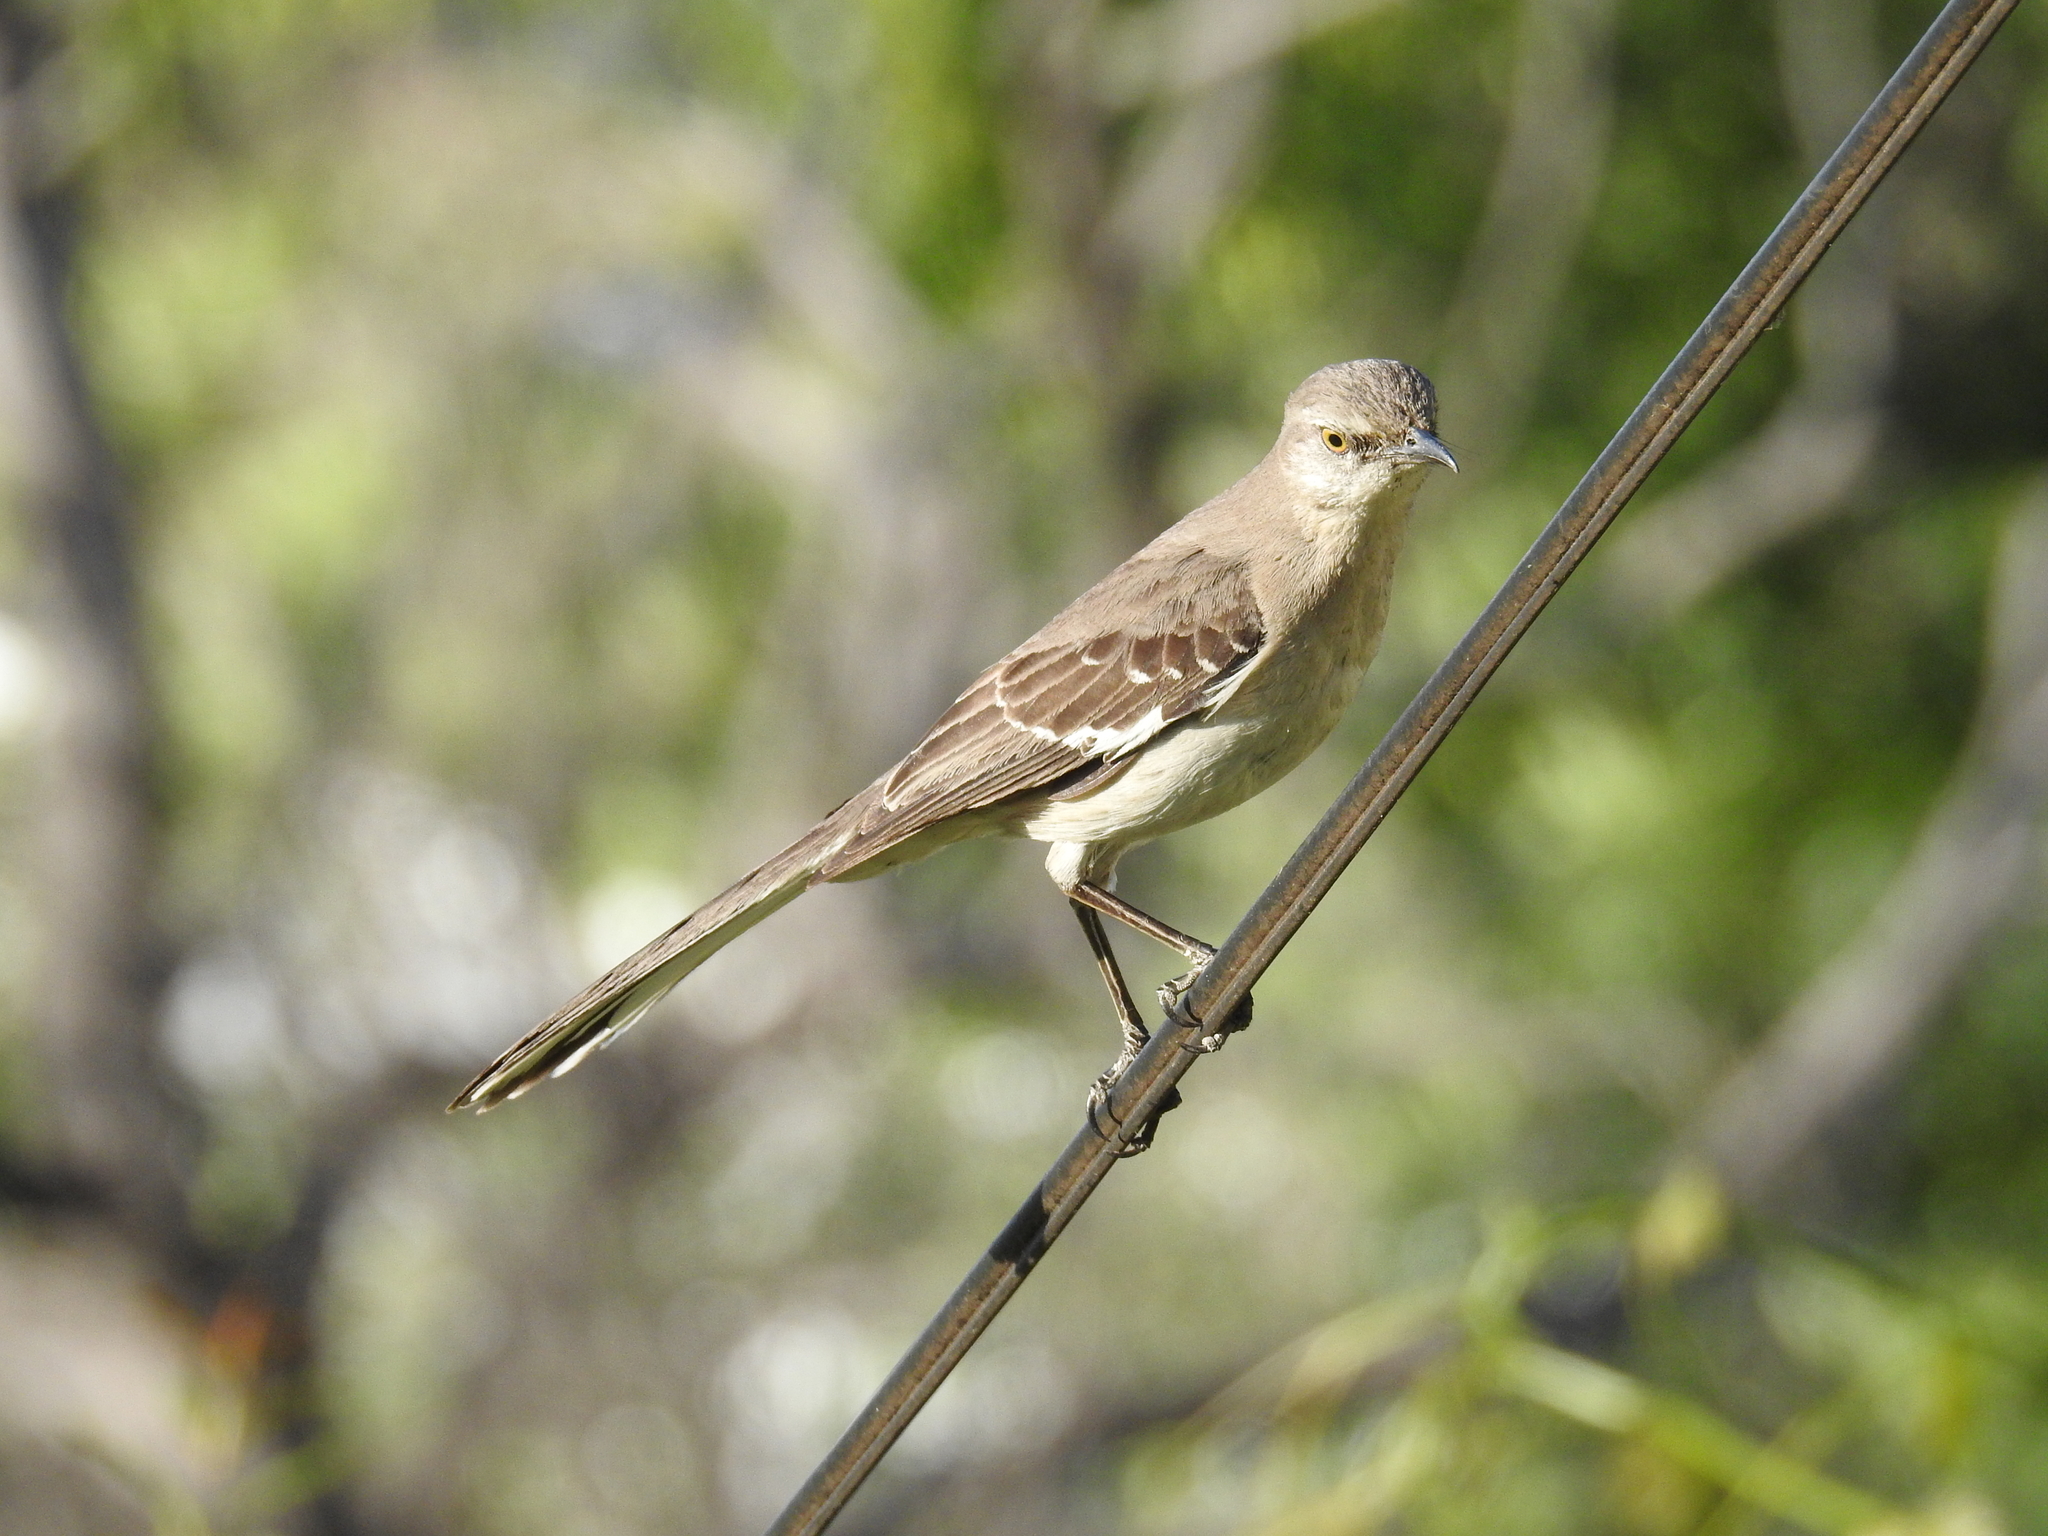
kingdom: Animalia
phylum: Chordata
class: Aves
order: Passeriformes
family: Mimidae
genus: Mimus
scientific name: Mimus polyglottos
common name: Northern mockingbird
